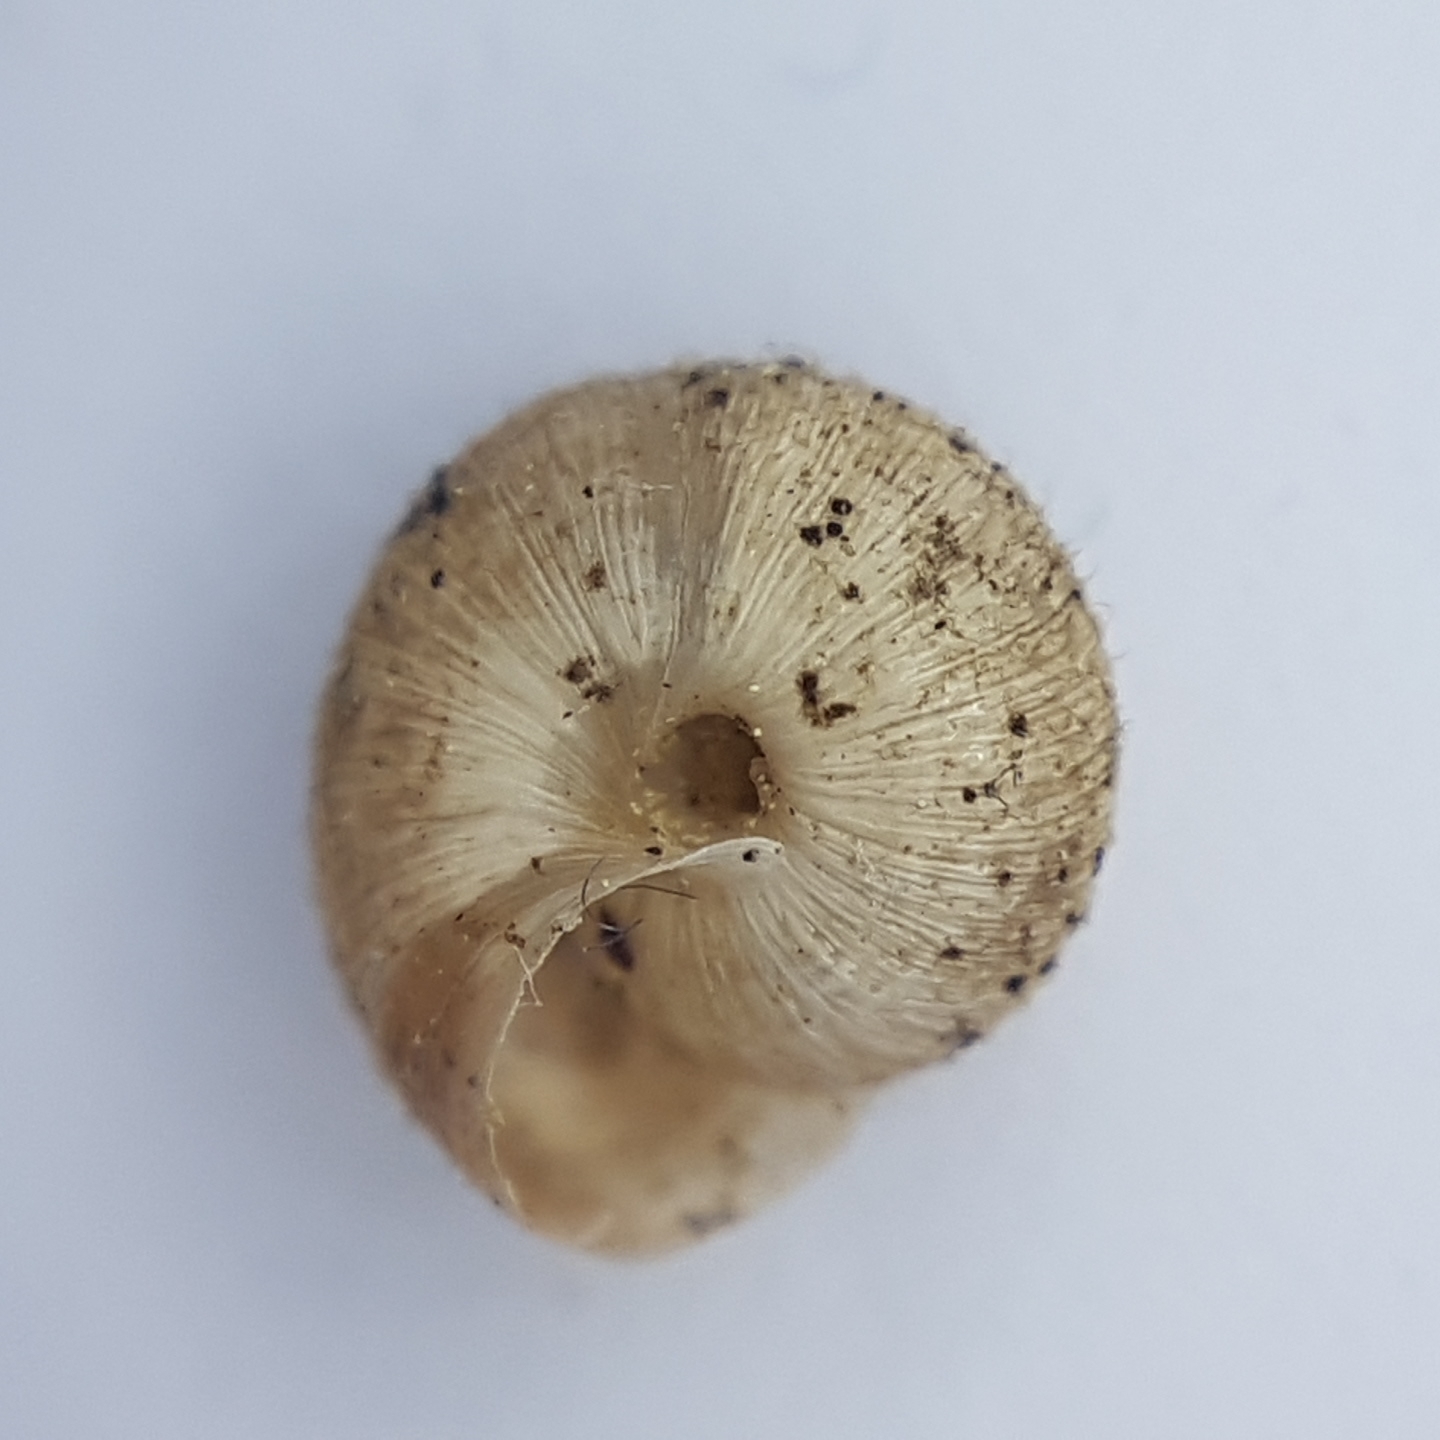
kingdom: Animalia
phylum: Mollusca
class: Gastropoda
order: Stylommatophora
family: Geomitridae
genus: Xerotricha
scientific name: Xerotricha conspurcata
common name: Snail
